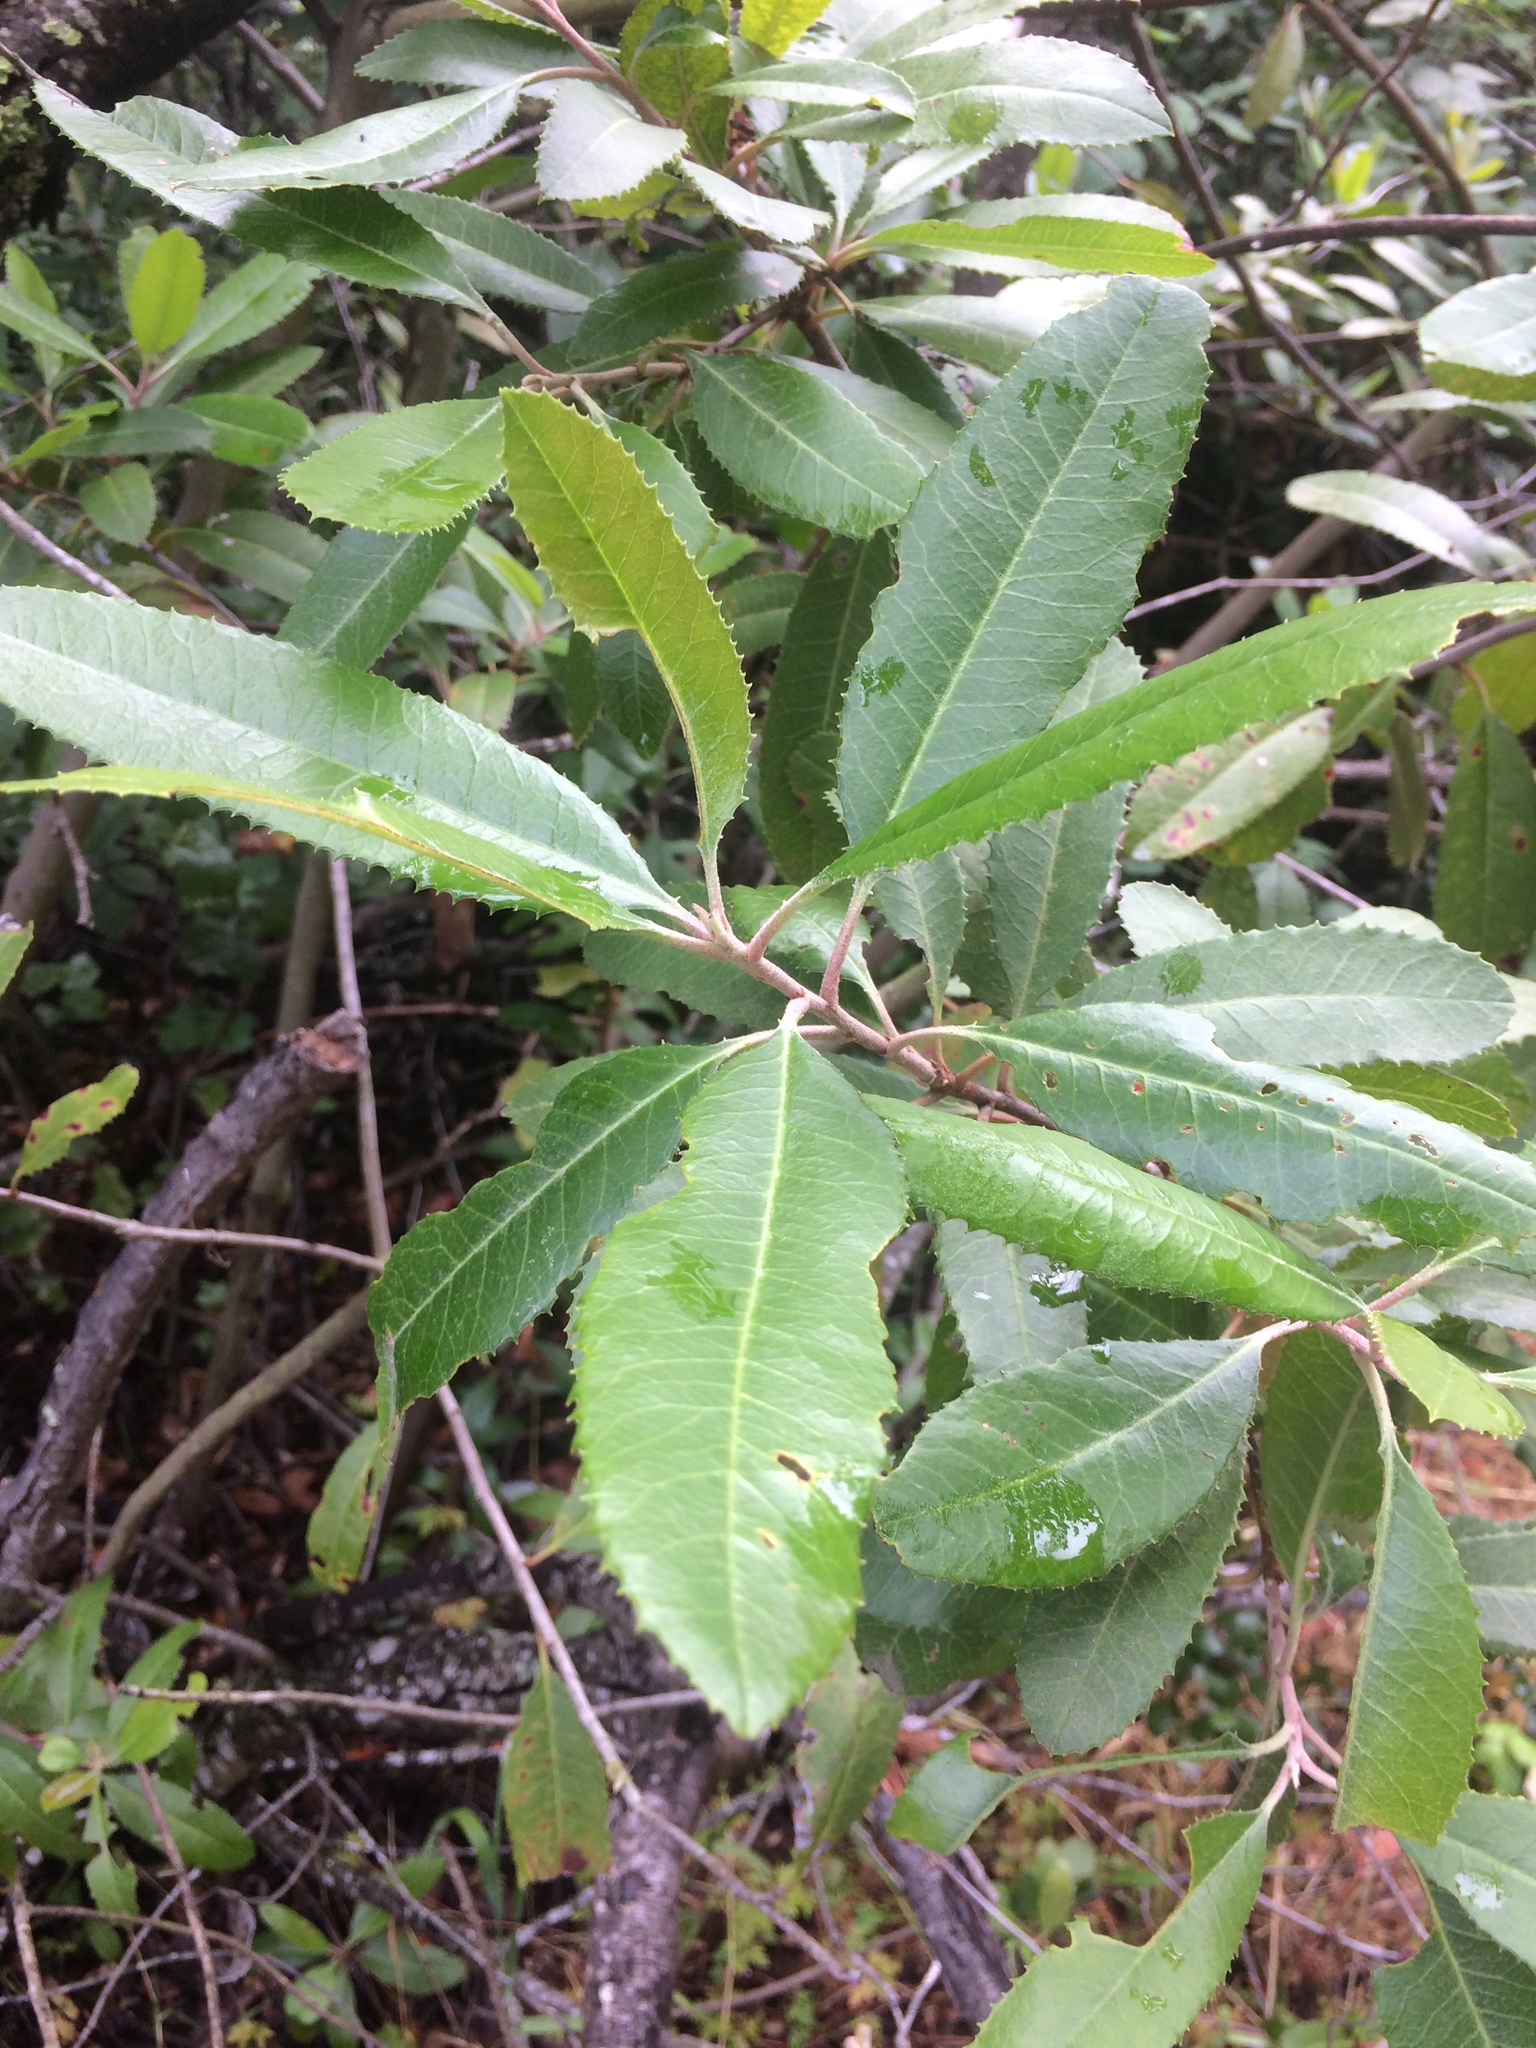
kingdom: Plantae
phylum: Tracheophyta
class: Magnoliopsida
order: Rosales
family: Rosaceae
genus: Heteromeles
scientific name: Heteromeles arbutifolia
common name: California-holly
